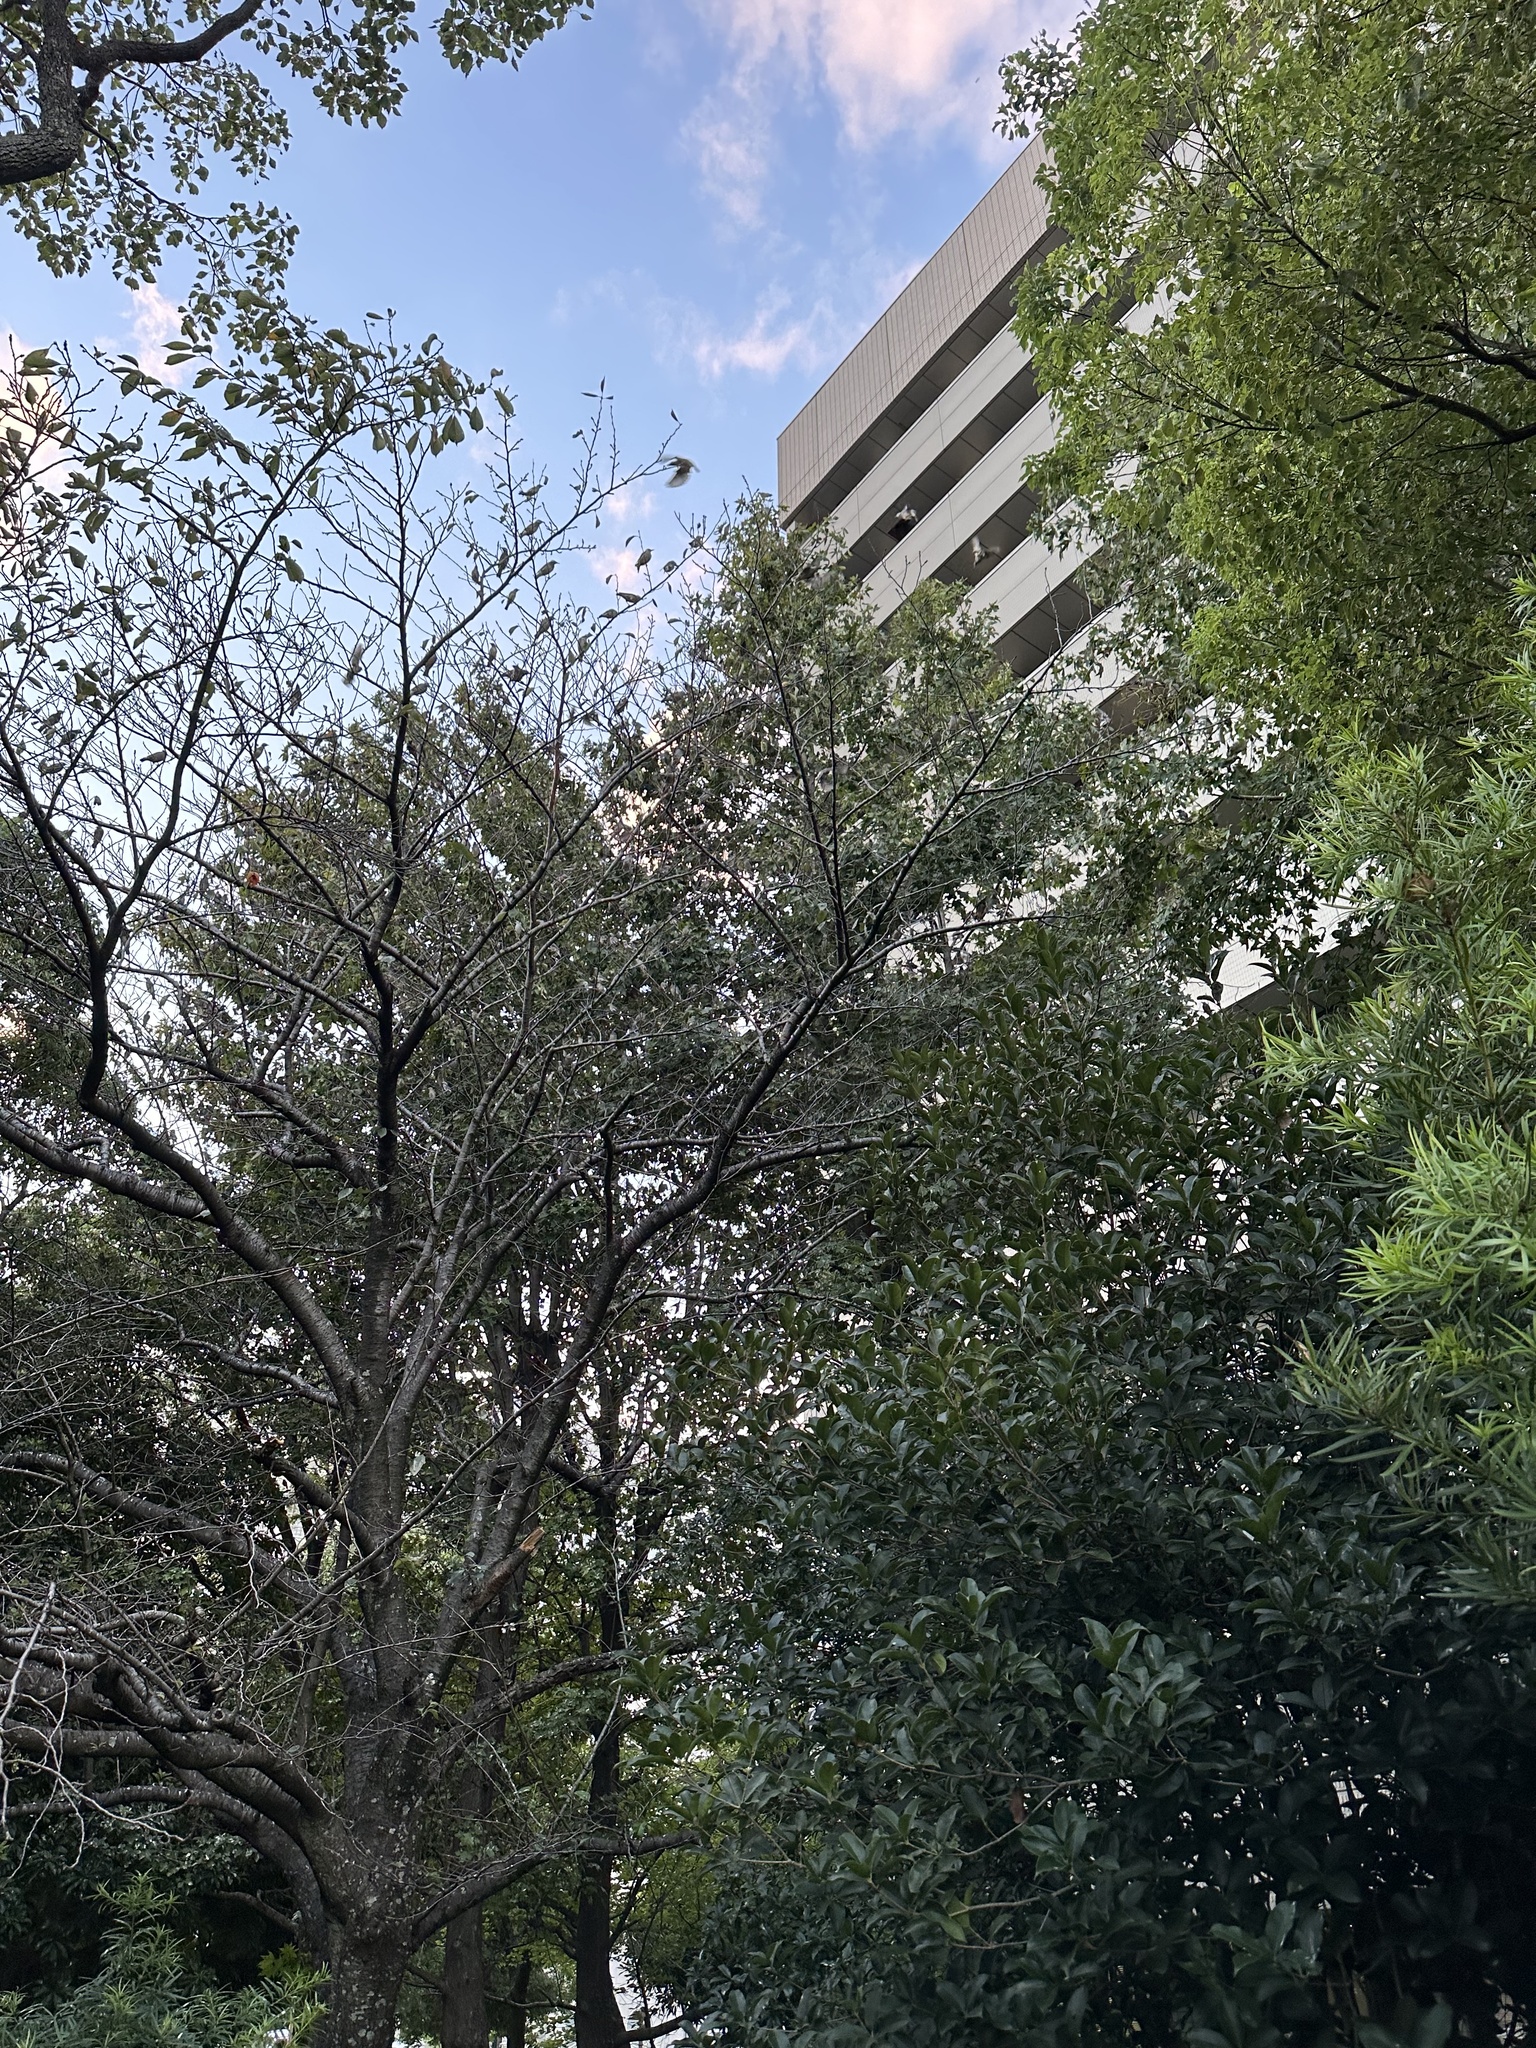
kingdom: Animalia
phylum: Chordata
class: Aves
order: Passeriformes
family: Sturnidae
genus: Spodiopsar
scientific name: Spodiopsar cineraceus
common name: White-cheeked starling
